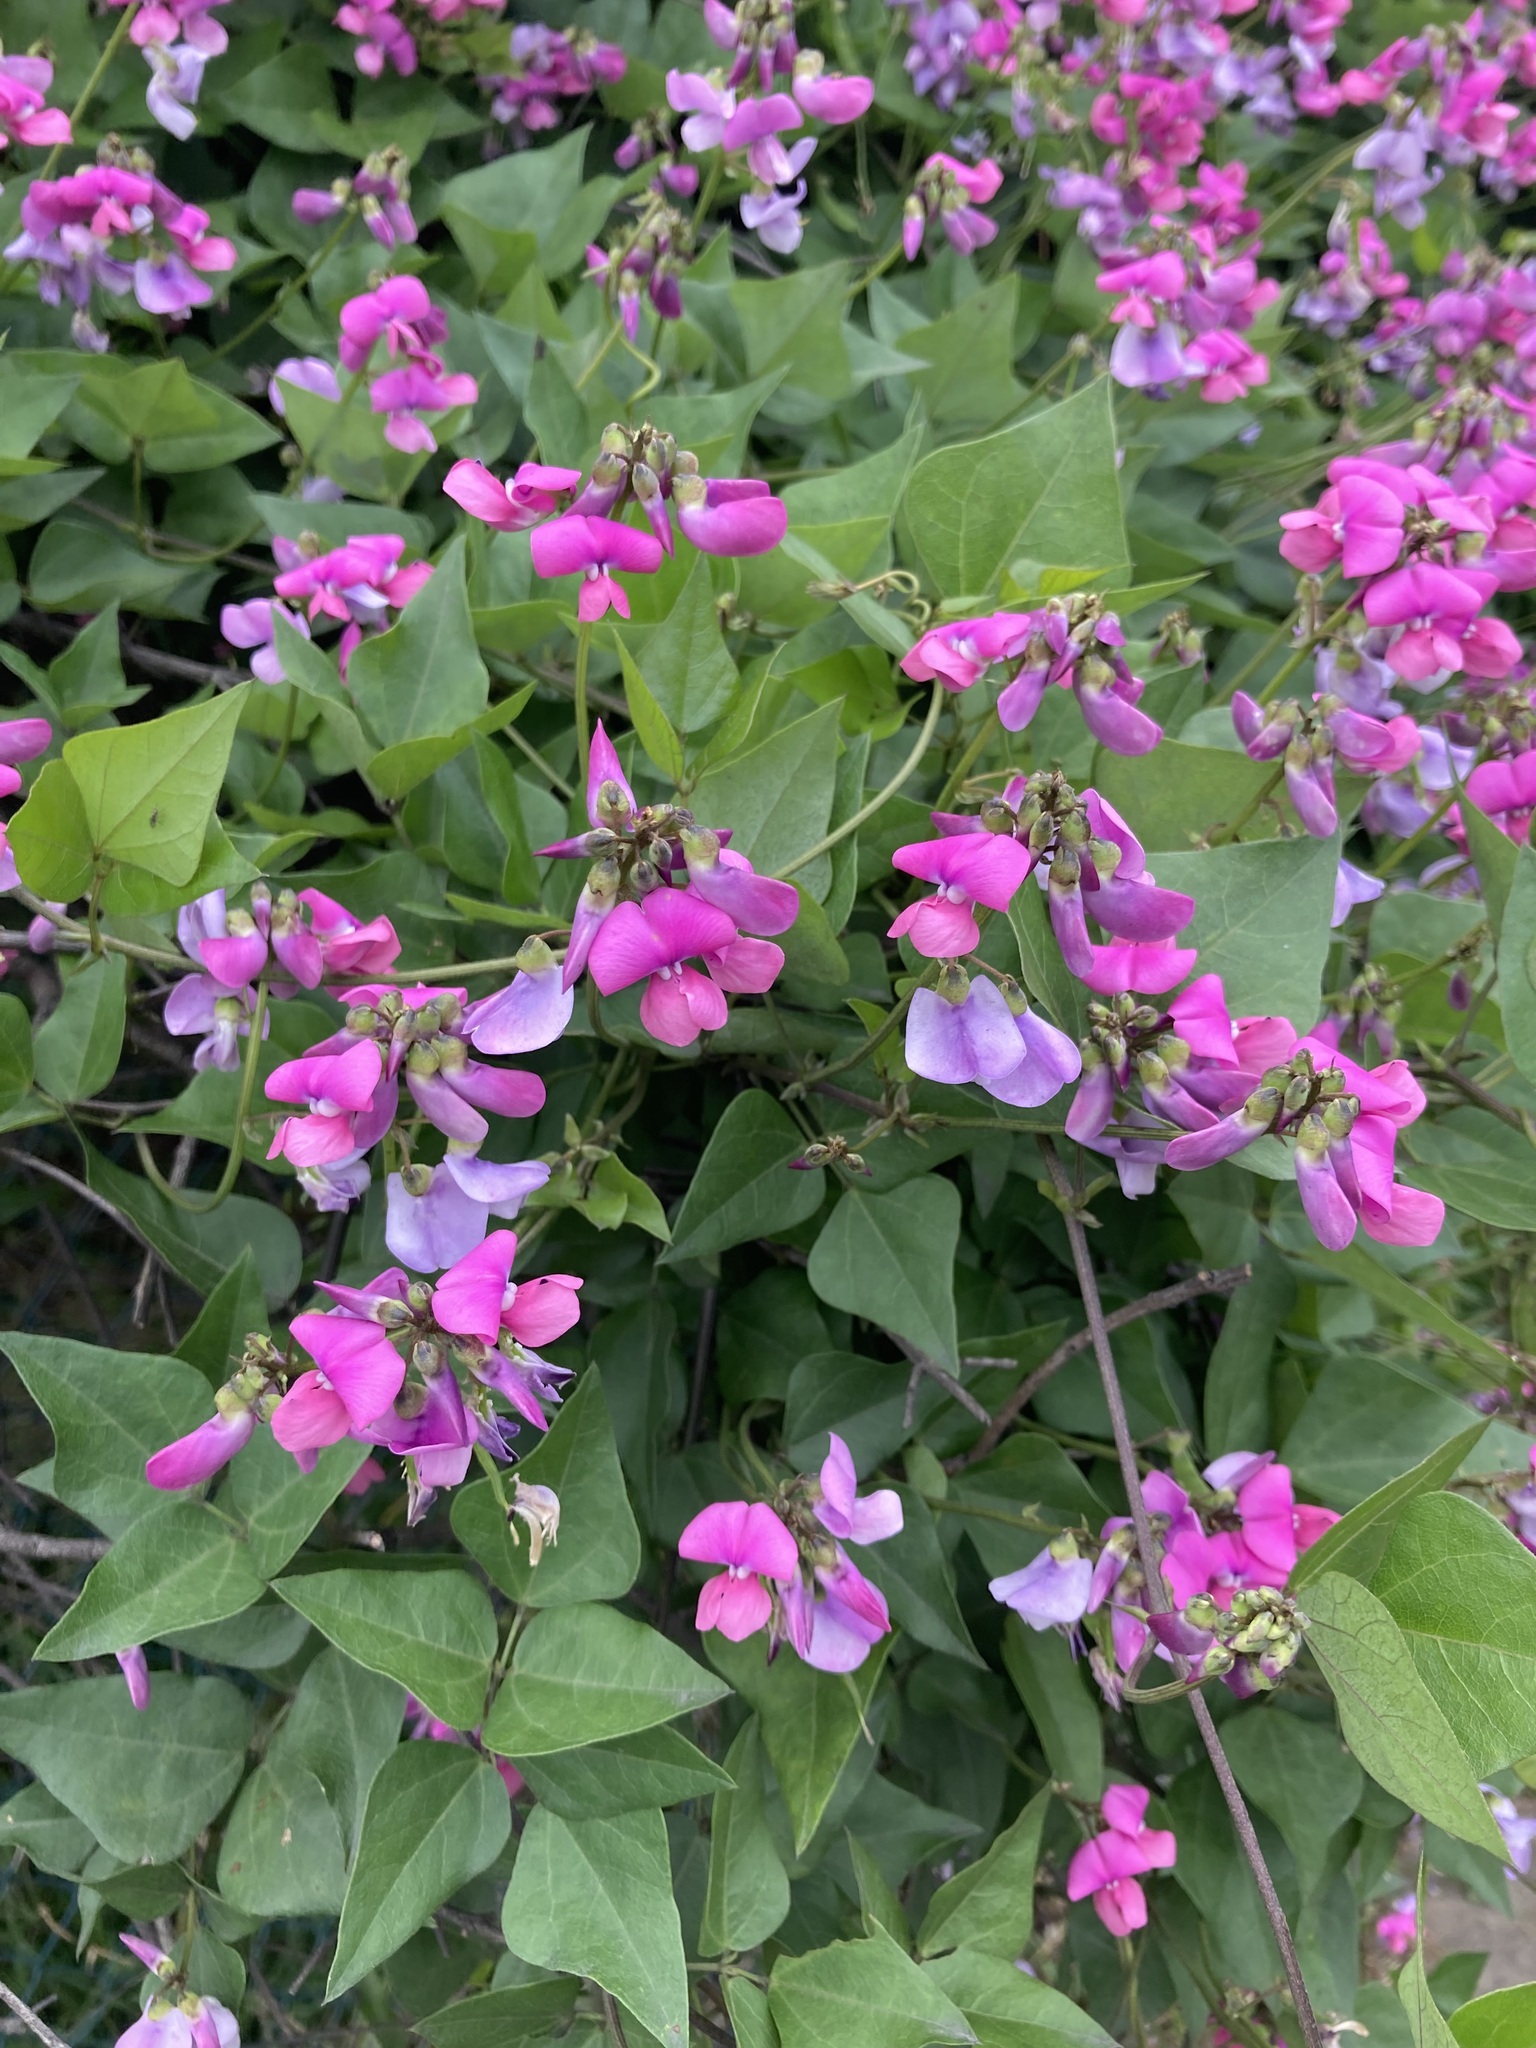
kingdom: Plantae
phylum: Tracheophyta
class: Magnoliopsida
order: Fabales
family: Fabaceae
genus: Dipogon
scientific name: Dipogon lignosus
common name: Okie bean
